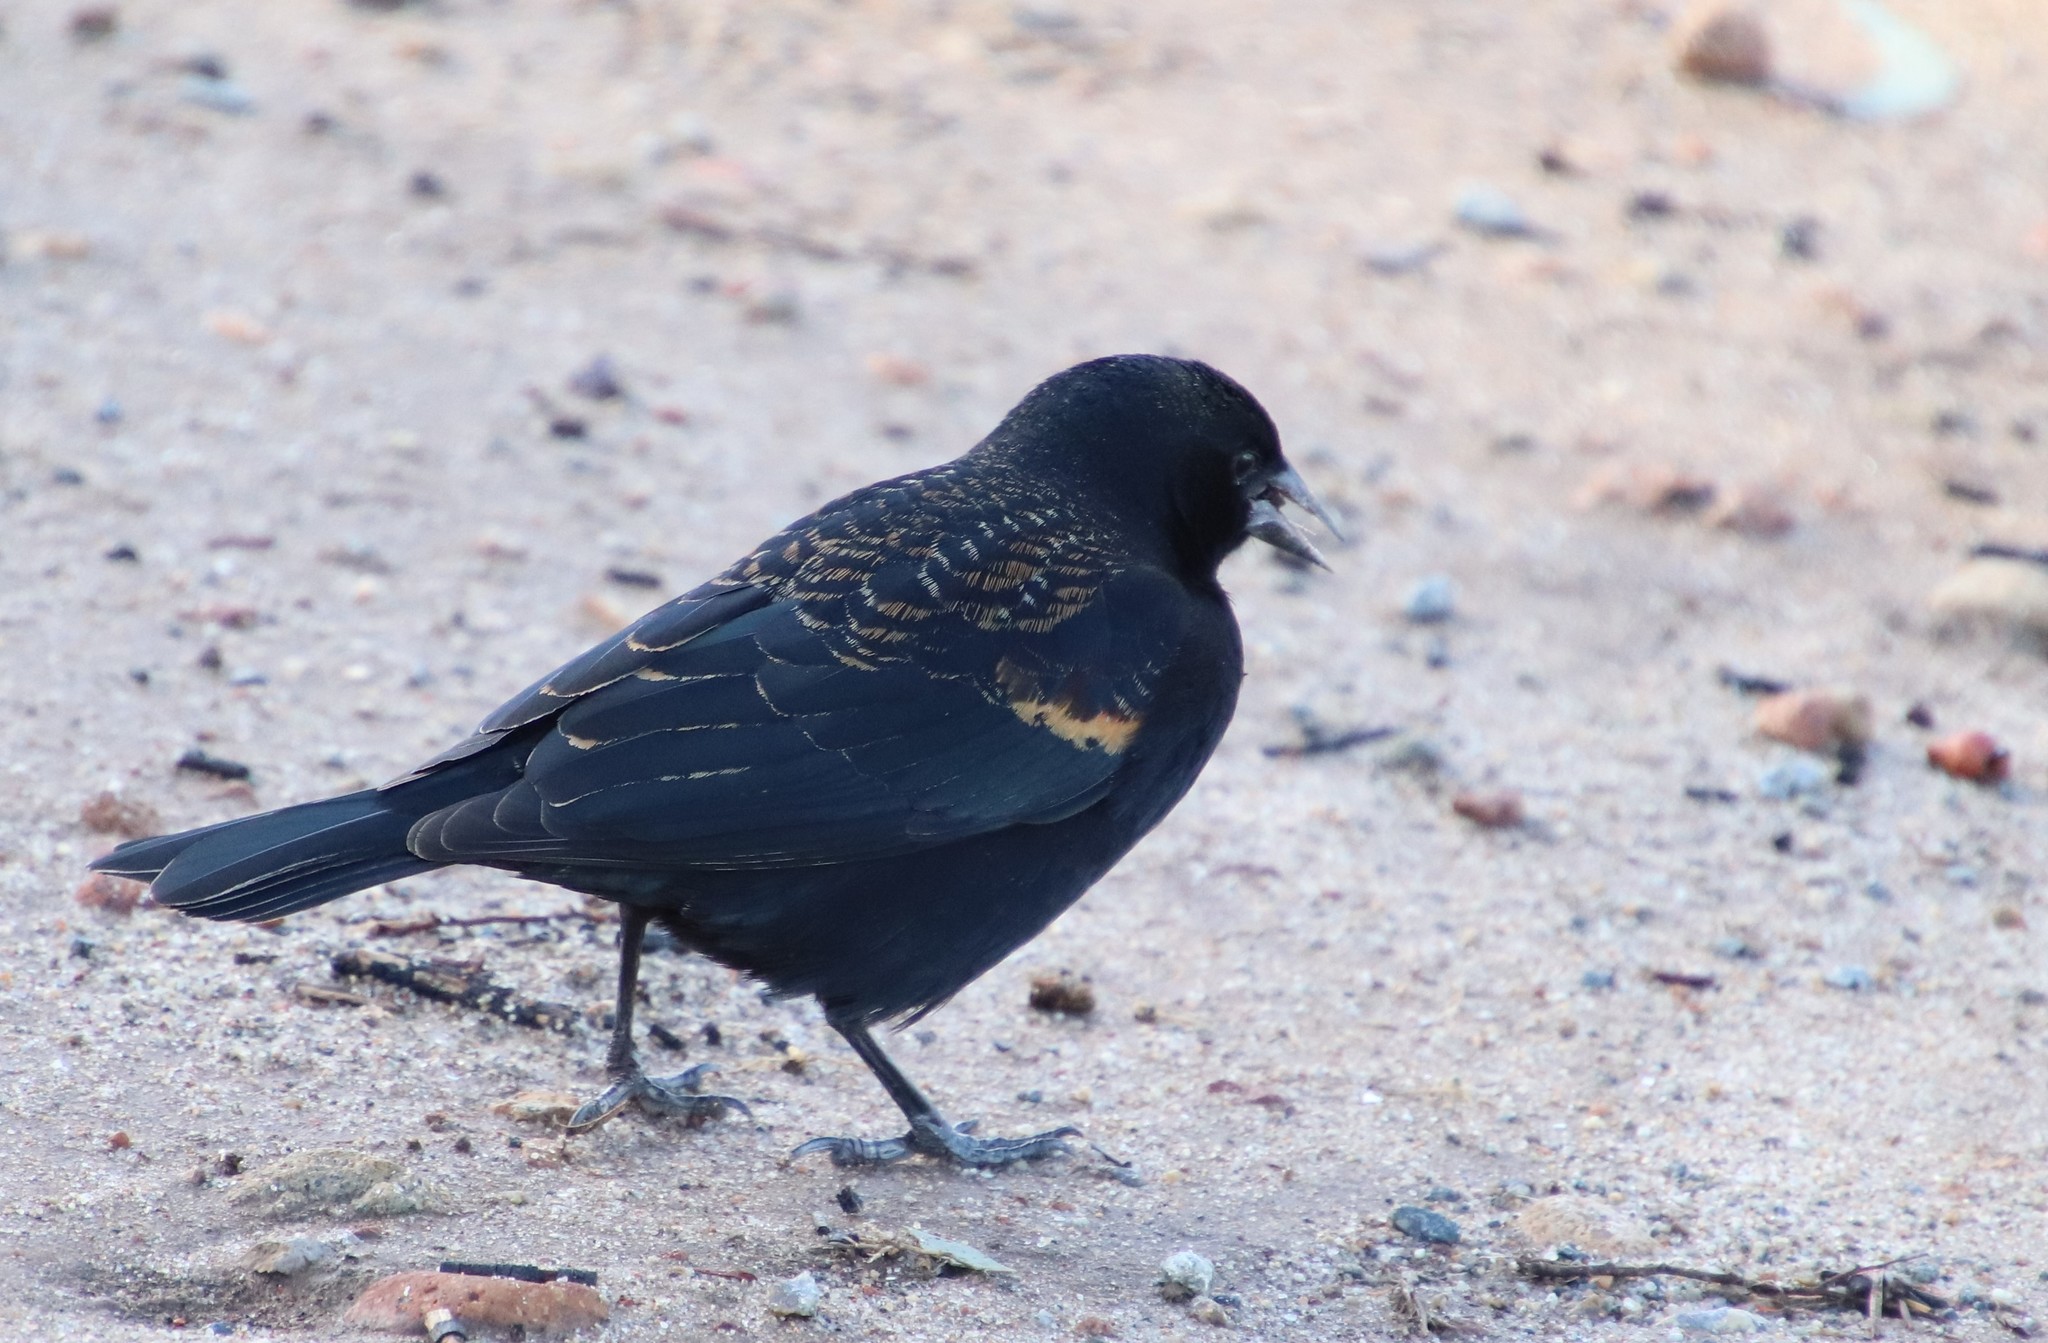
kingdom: Animalia
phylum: Chordata
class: Aves
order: Passeriformes
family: Icteridae
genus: Agelaius
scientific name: Agelaius phoeniceus
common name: Red-winged blackbird
